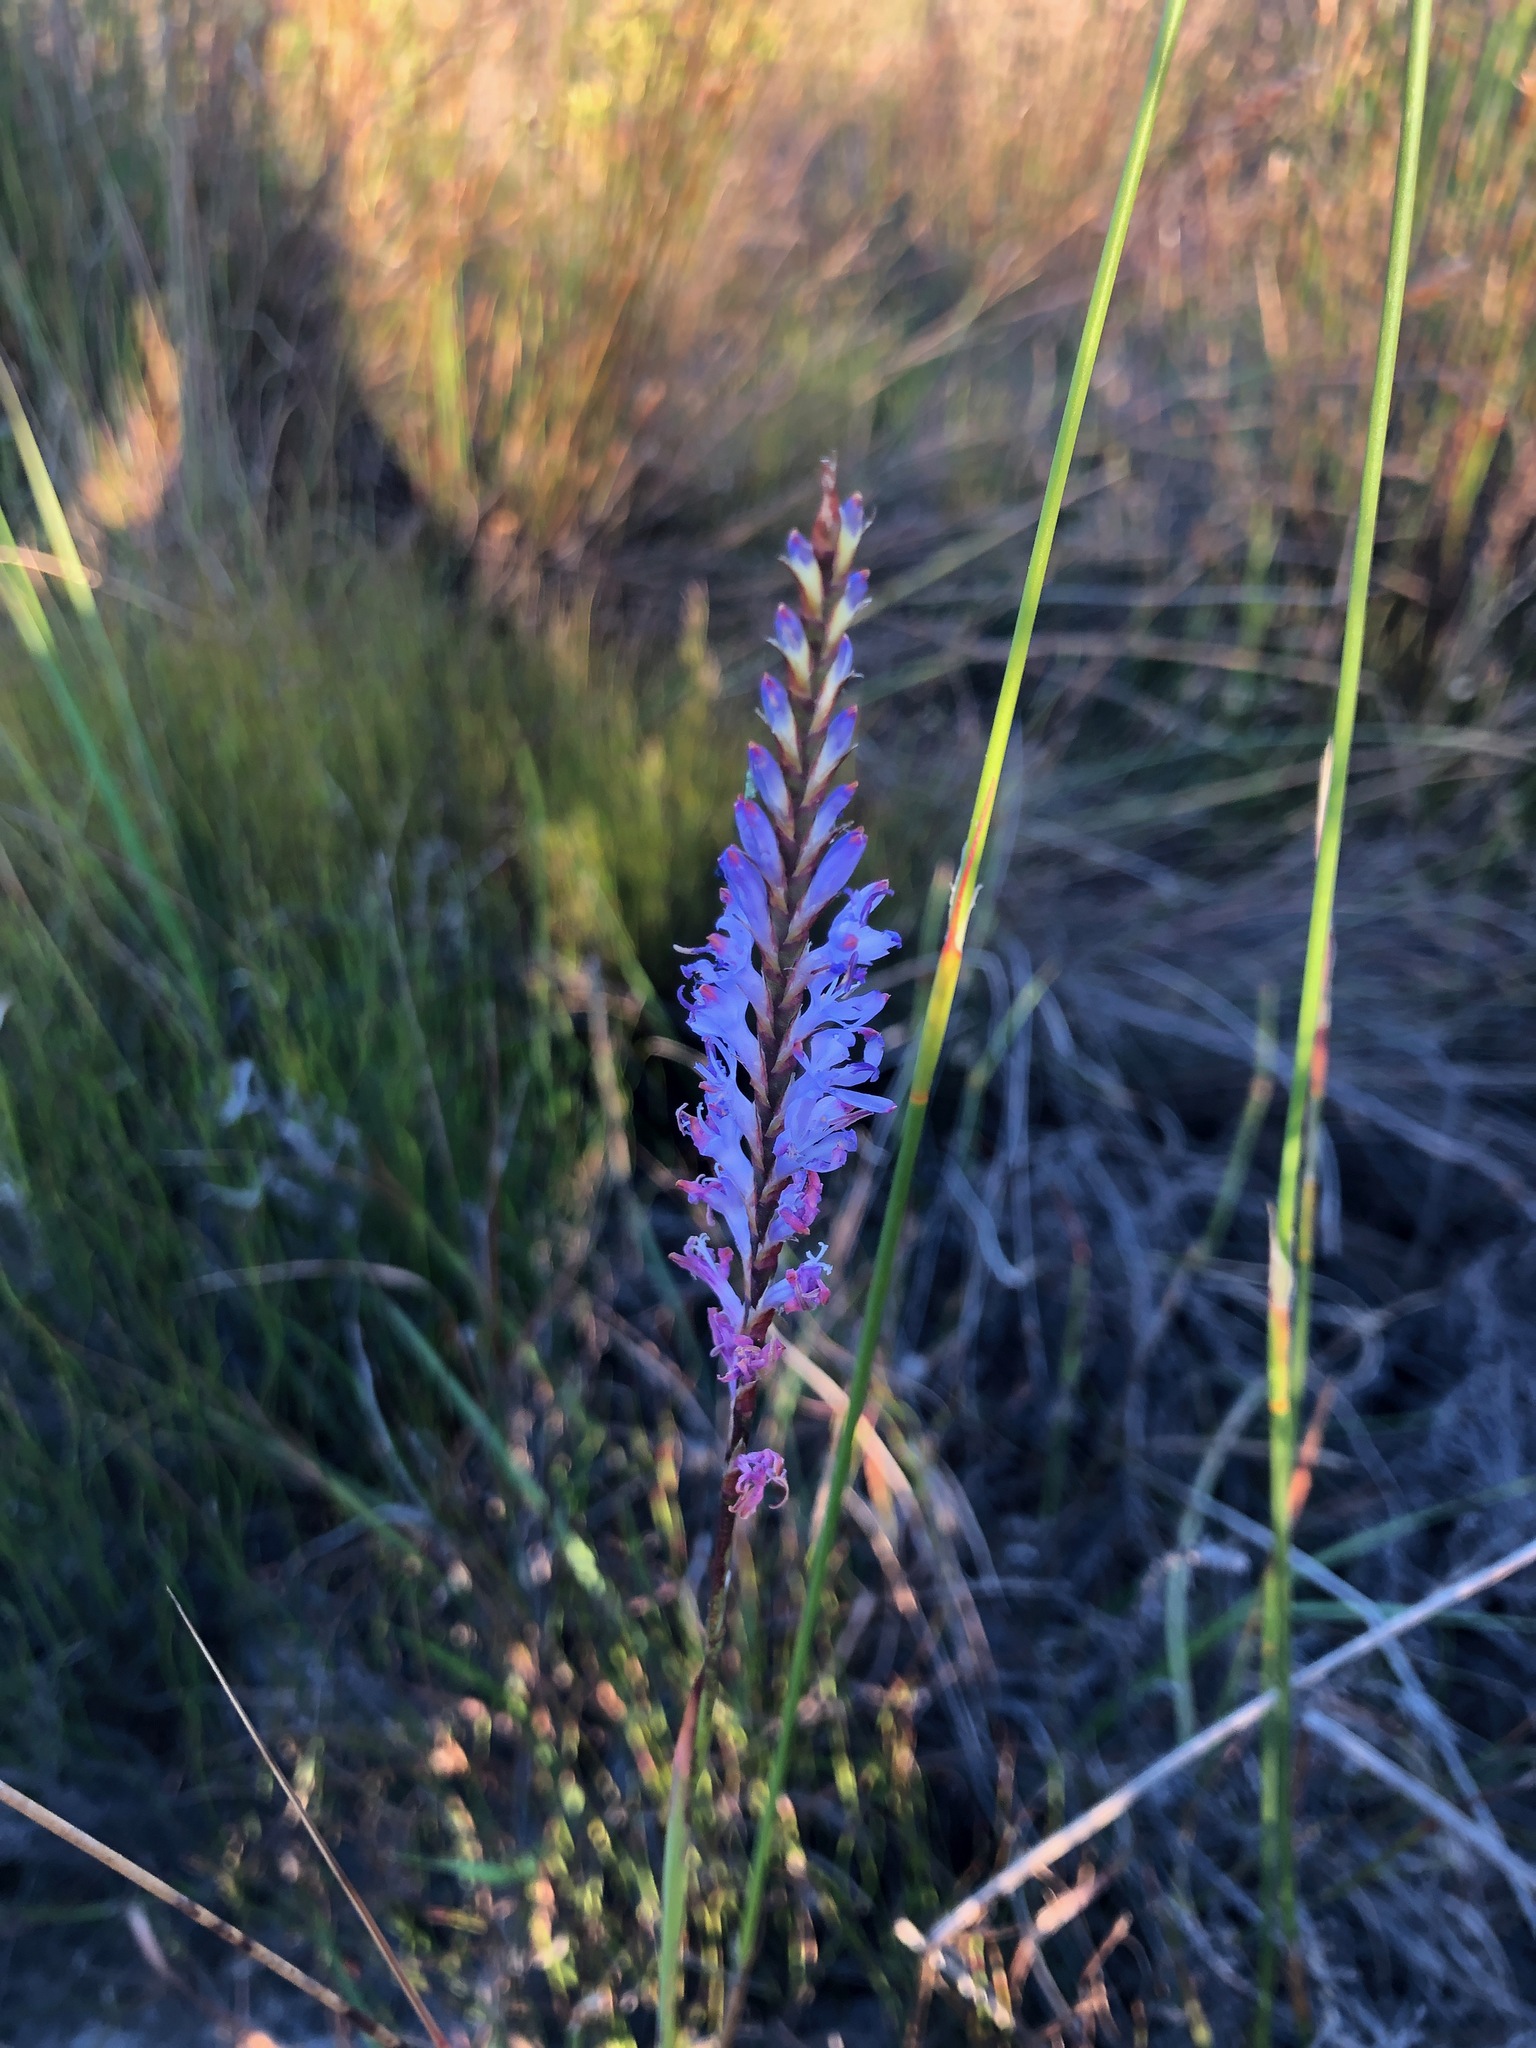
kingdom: Plantae
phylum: Tracheophyta
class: Liliopsida
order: Asparagales
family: Iridaceae
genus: Micranthus
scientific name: Micranthus alopecuroides
